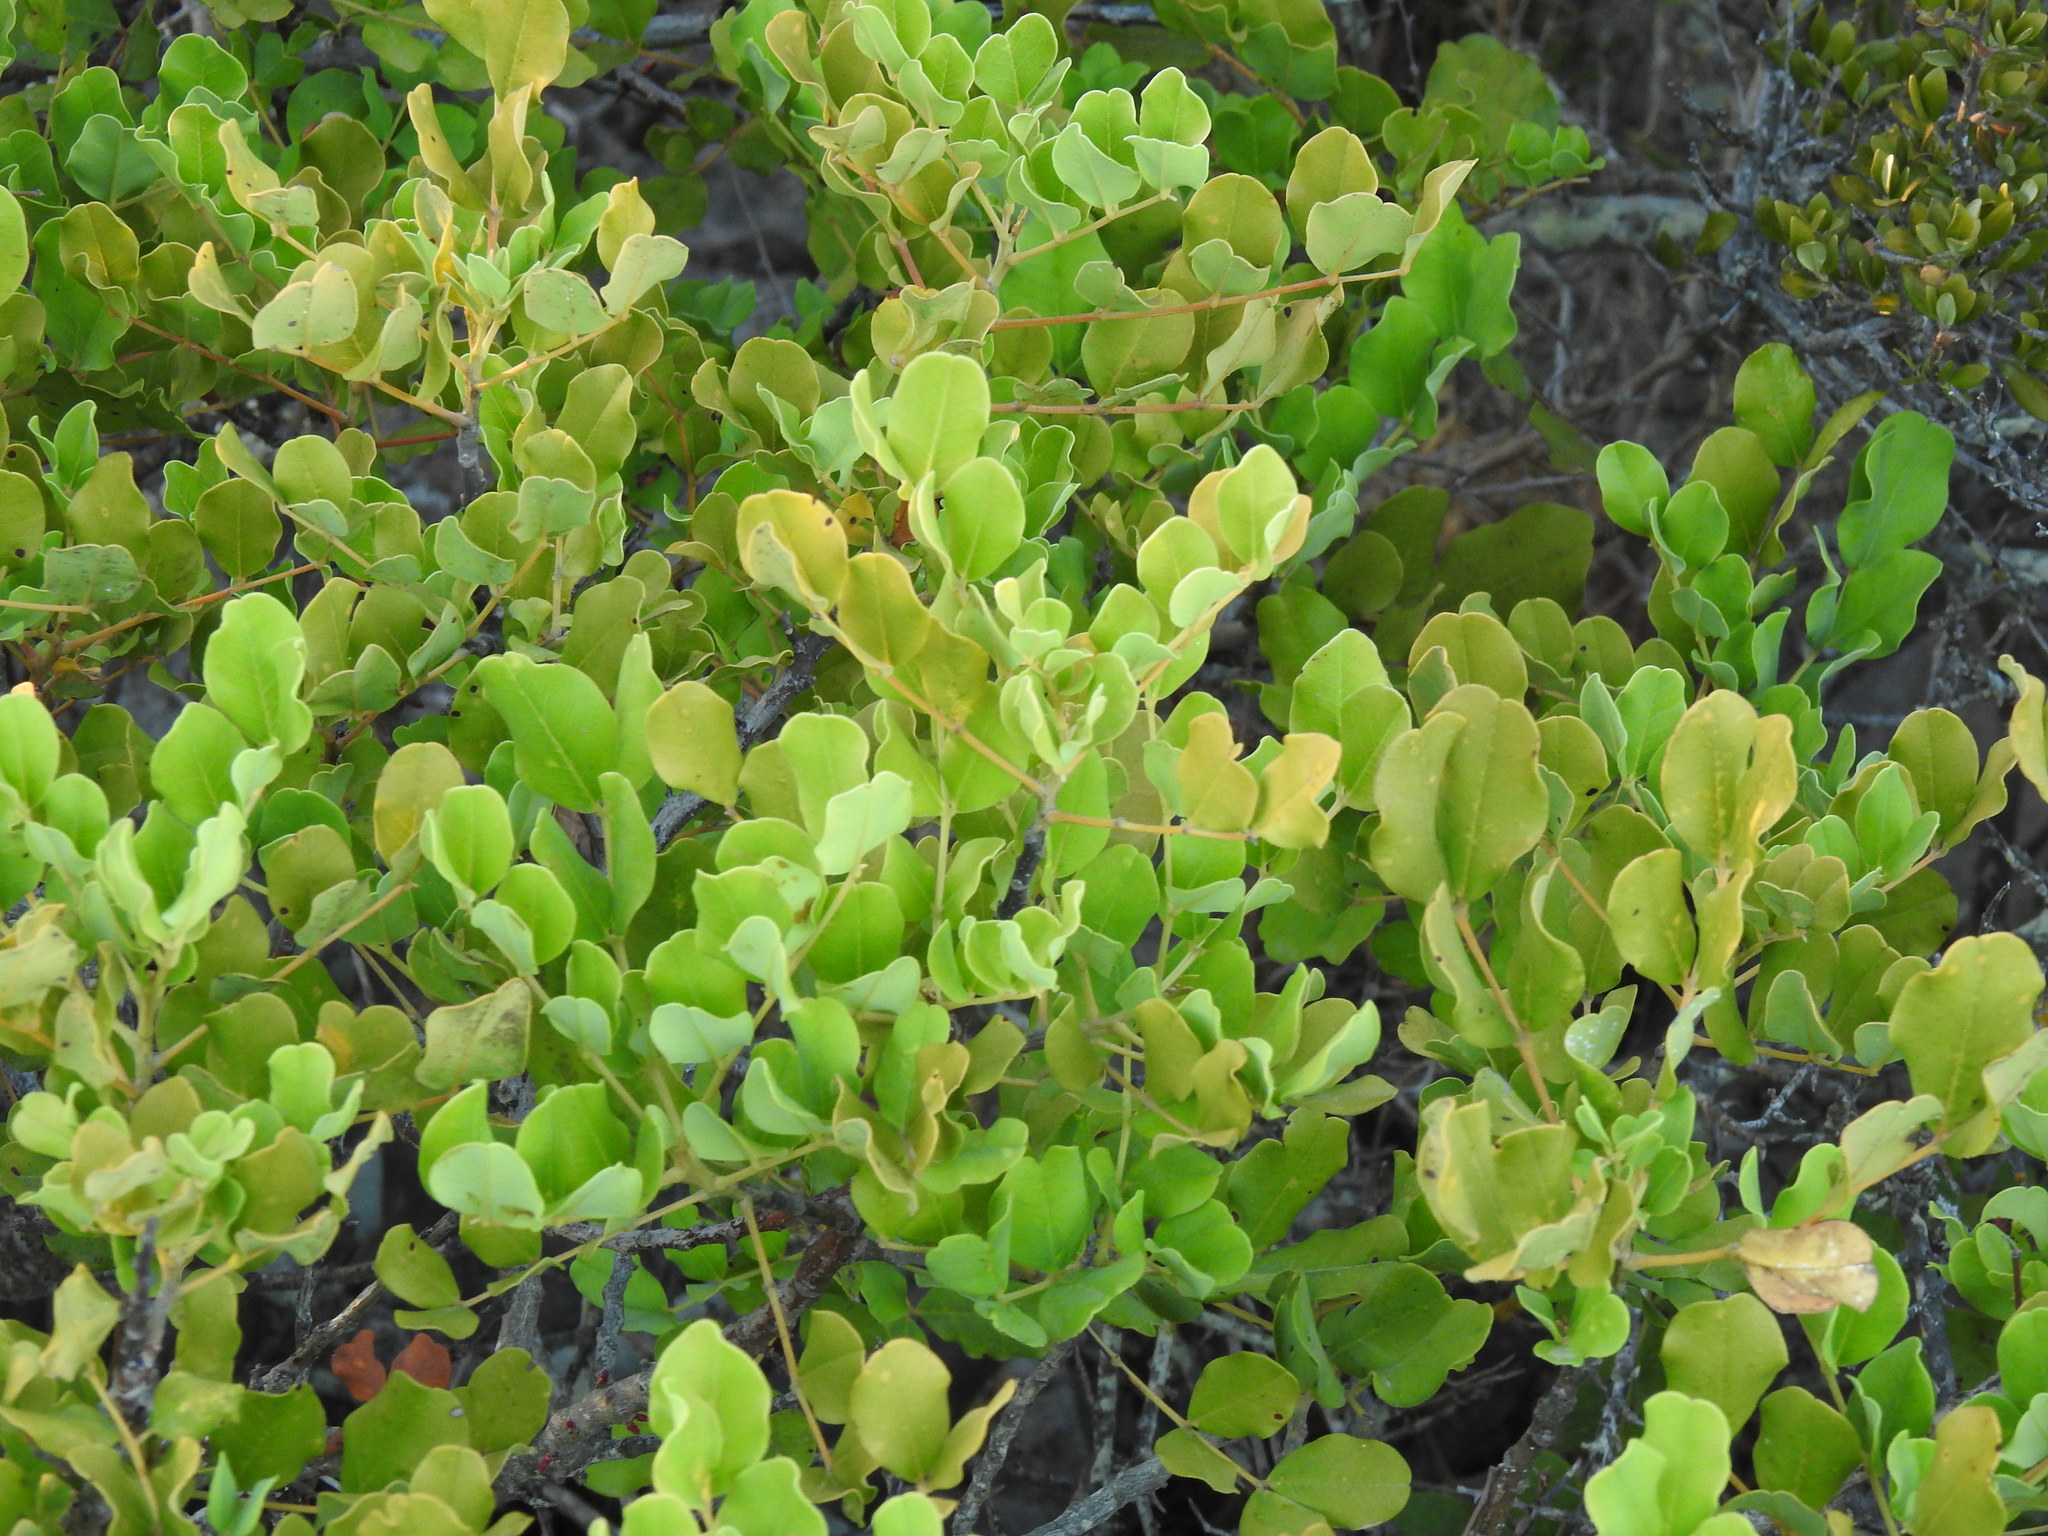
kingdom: Plantae
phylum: Tracheophyta
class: Magnoliopsida
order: Fabales
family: Fabaceae
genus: Ceratonia
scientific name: Ceratonia siliqua
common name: Carob
